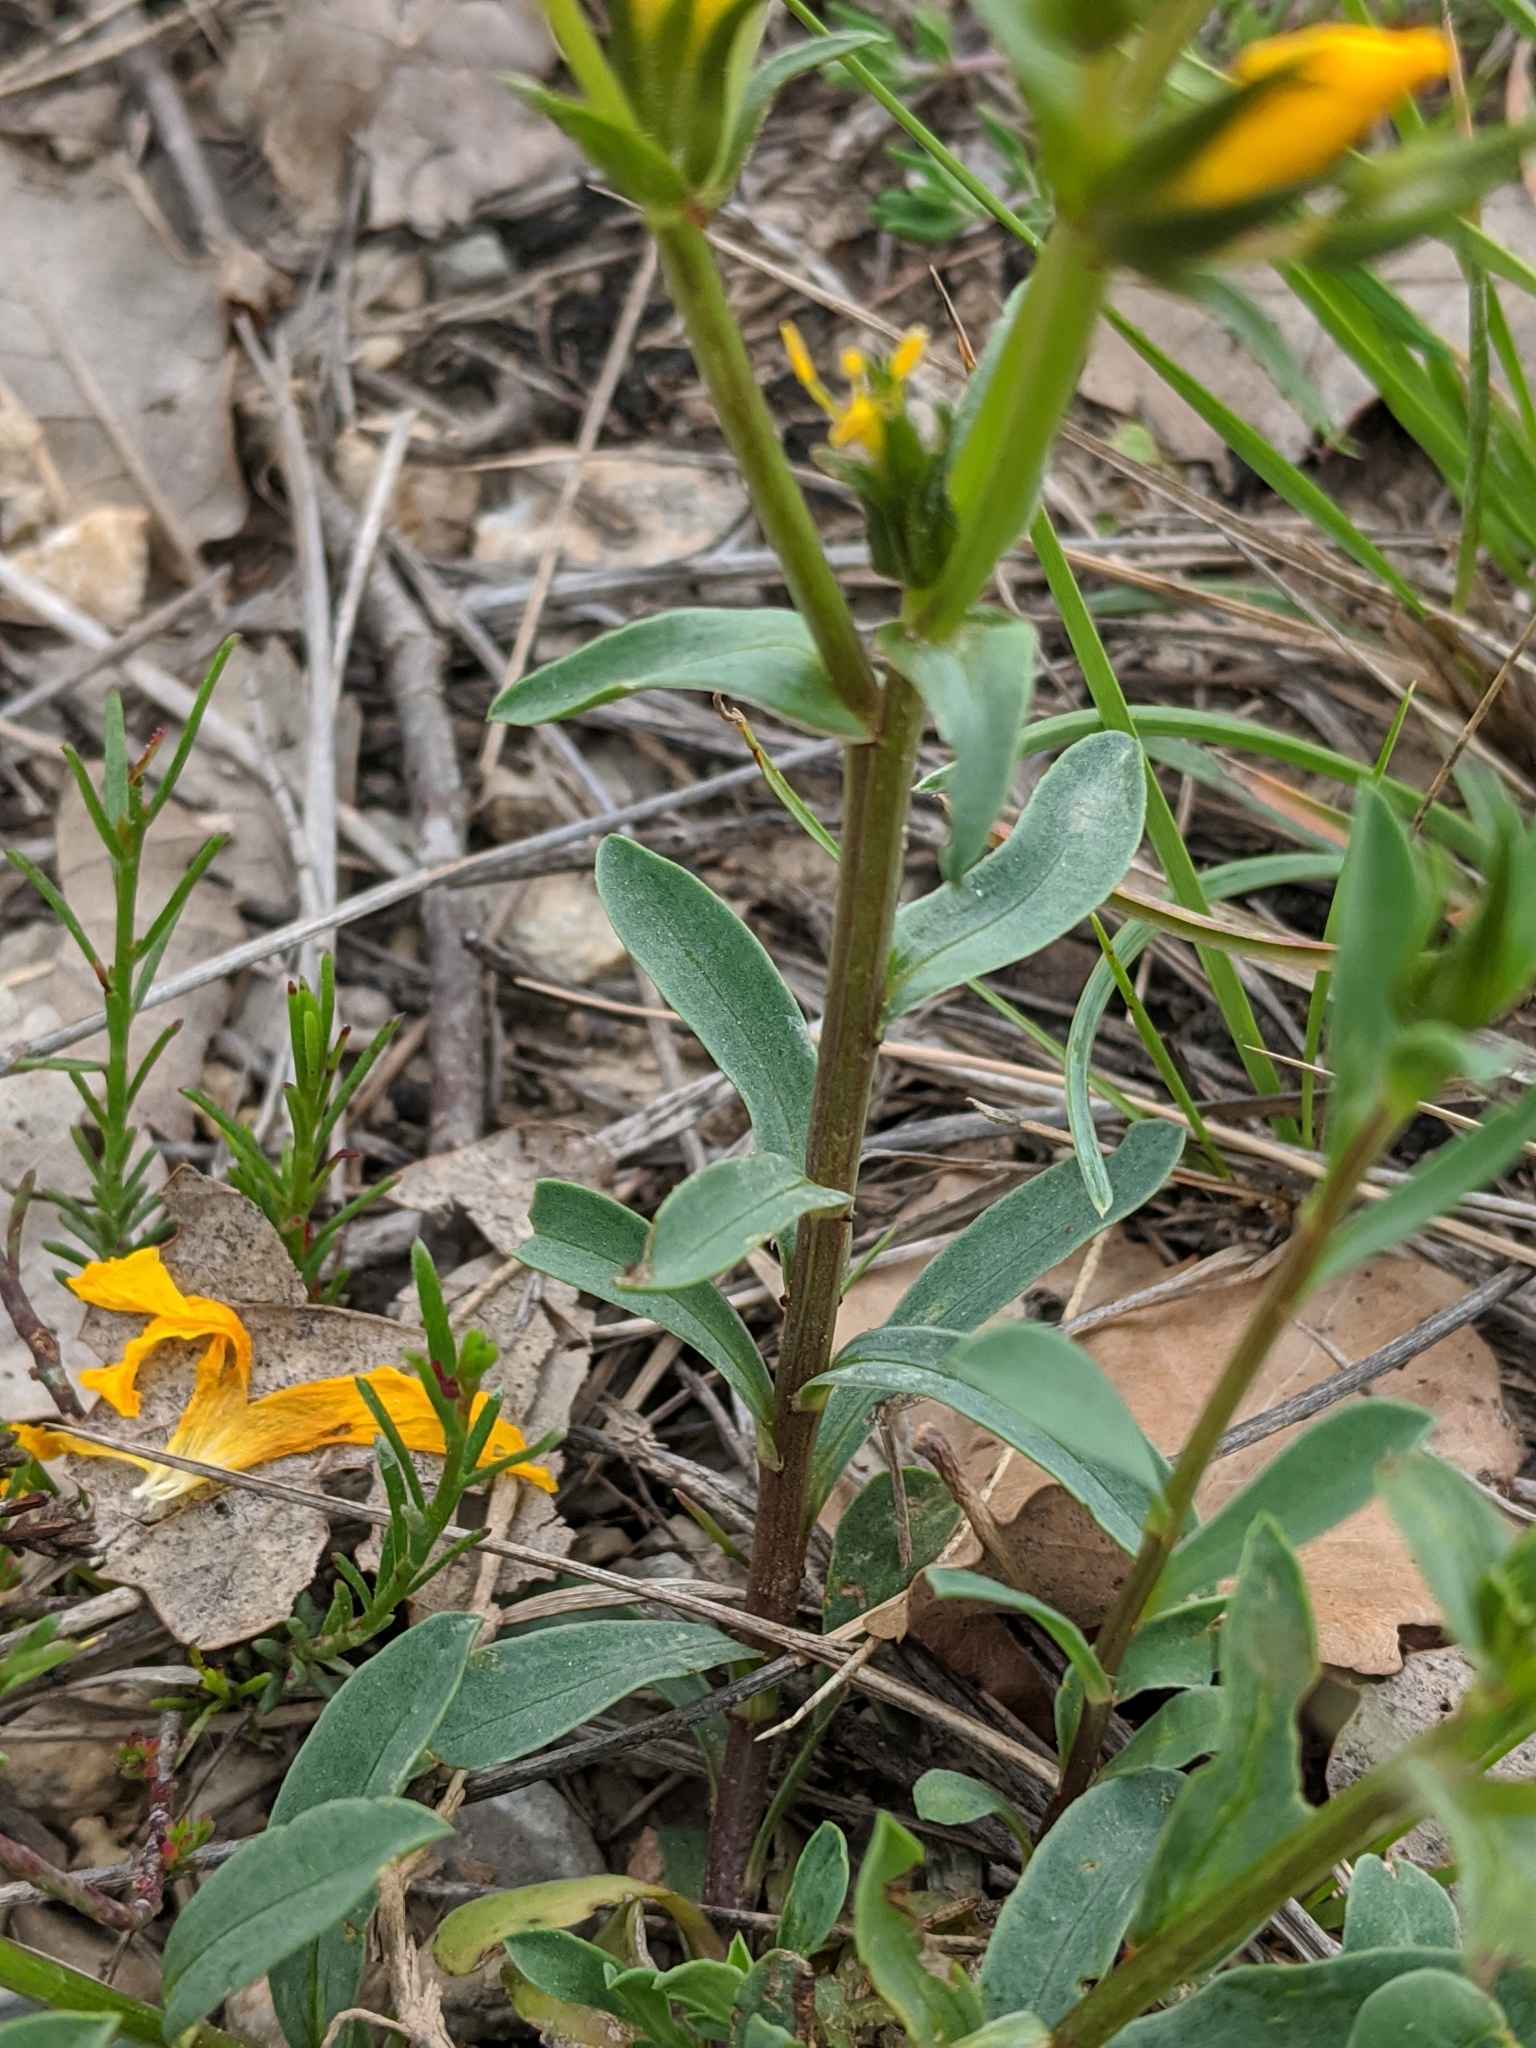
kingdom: Plantae
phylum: Tracheophyta
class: Magnoliopsida
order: Malpighiales
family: Linaceae
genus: Linum
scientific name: Linum campanulatum
